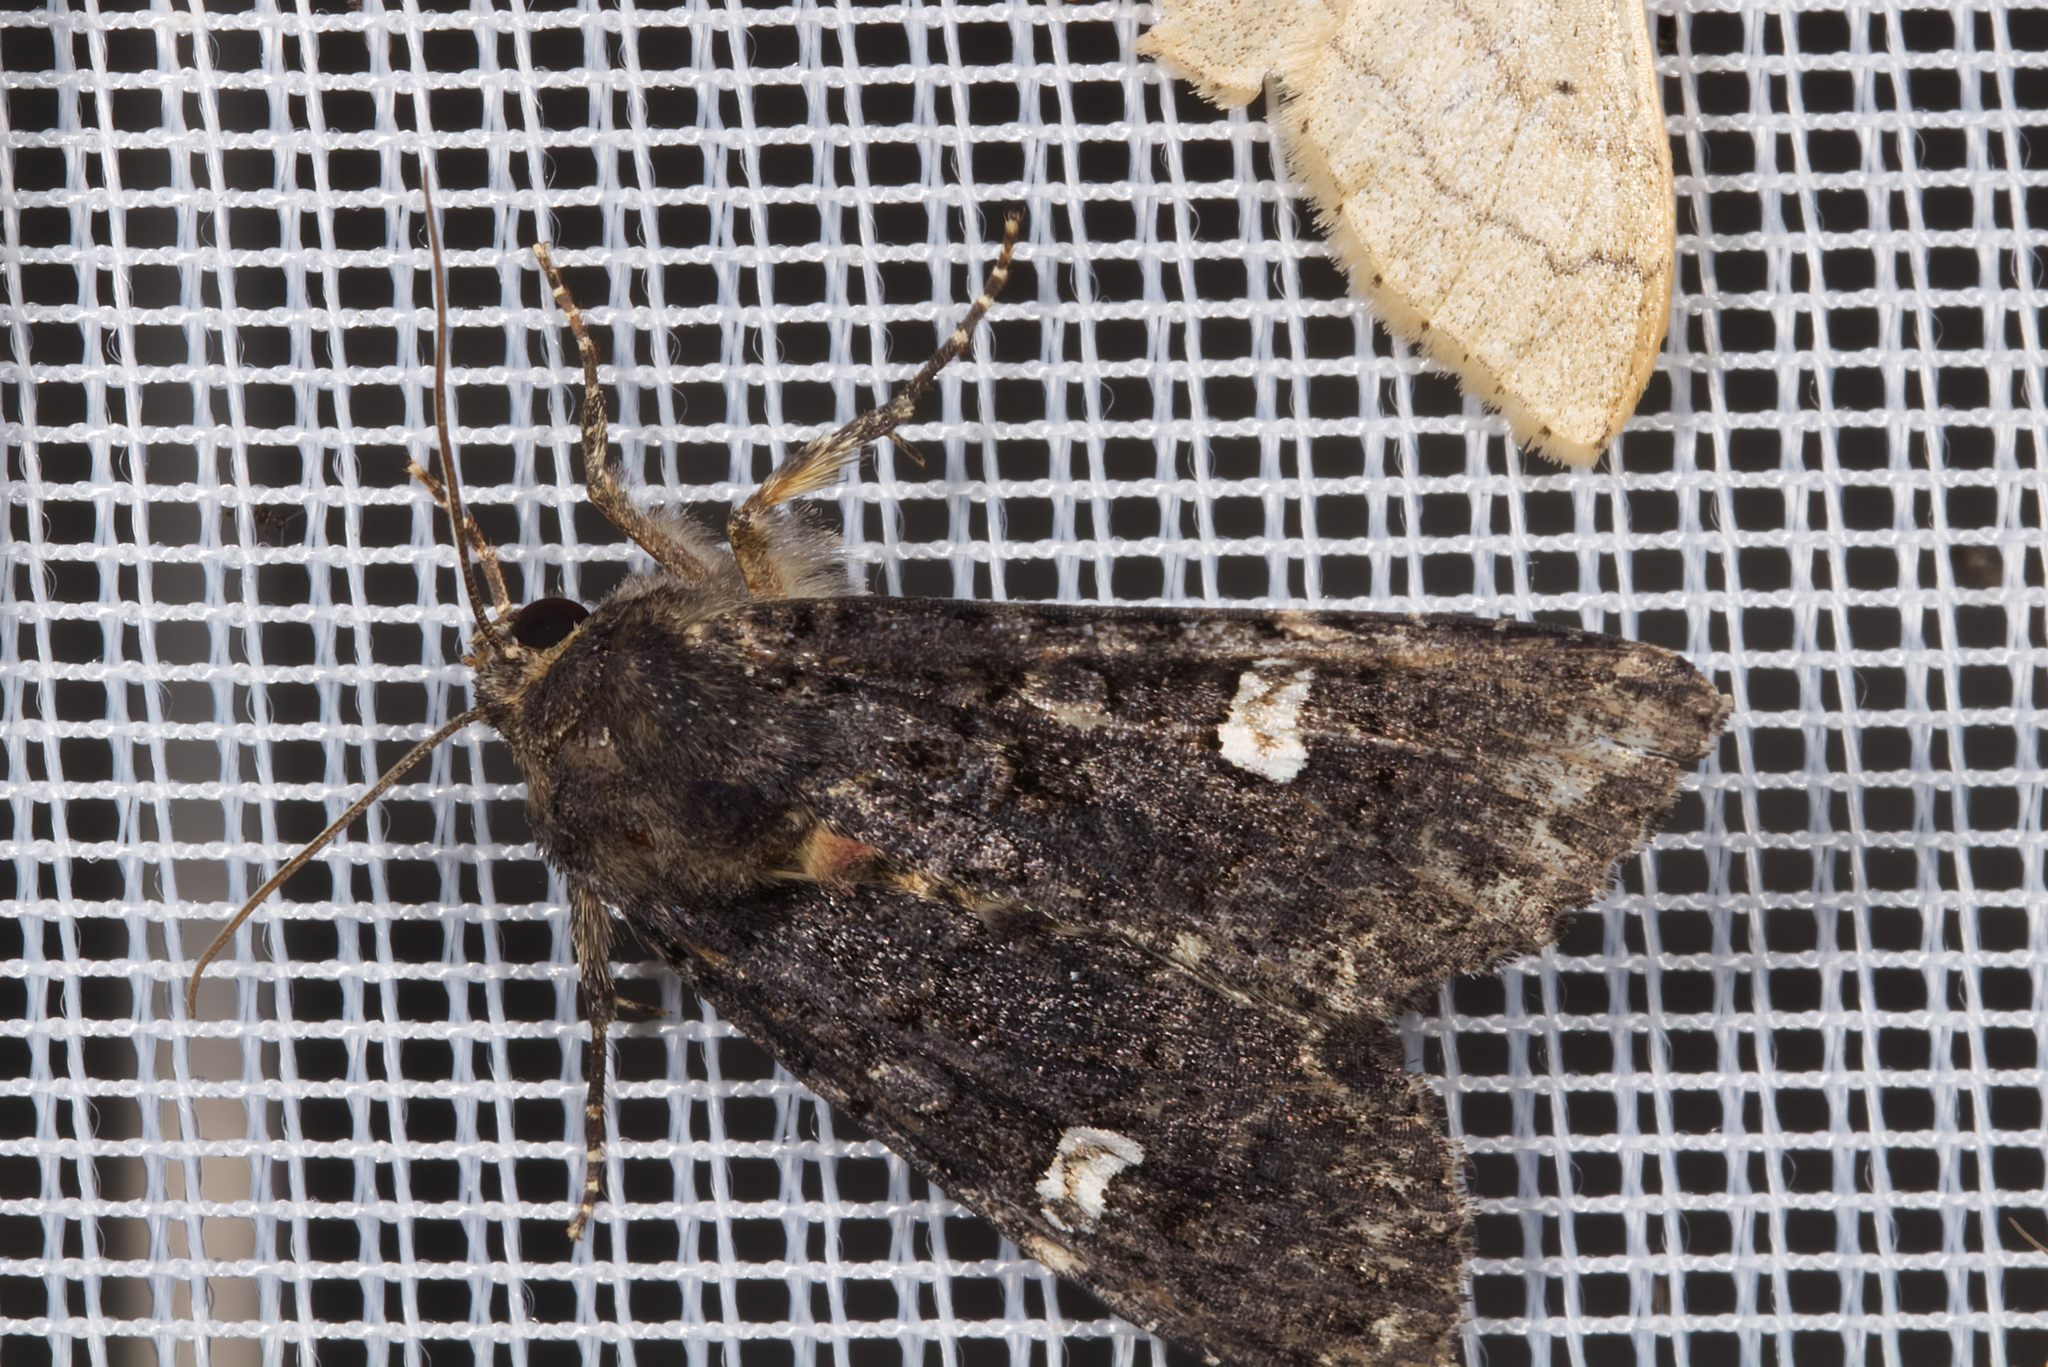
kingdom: Animalia
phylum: Arthropoda
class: Insecta
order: Lepidoptera
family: Noctuidae
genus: Melanchra
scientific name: Melanchra persicariae
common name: Dot moth
